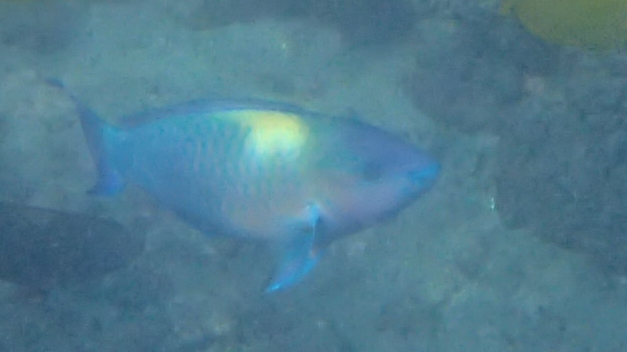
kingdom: Animalia
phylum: Chordata
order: Perciformes
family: Scaridae
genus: Scarus
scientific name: Scarus psittacus
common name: Palenose parrotfish
